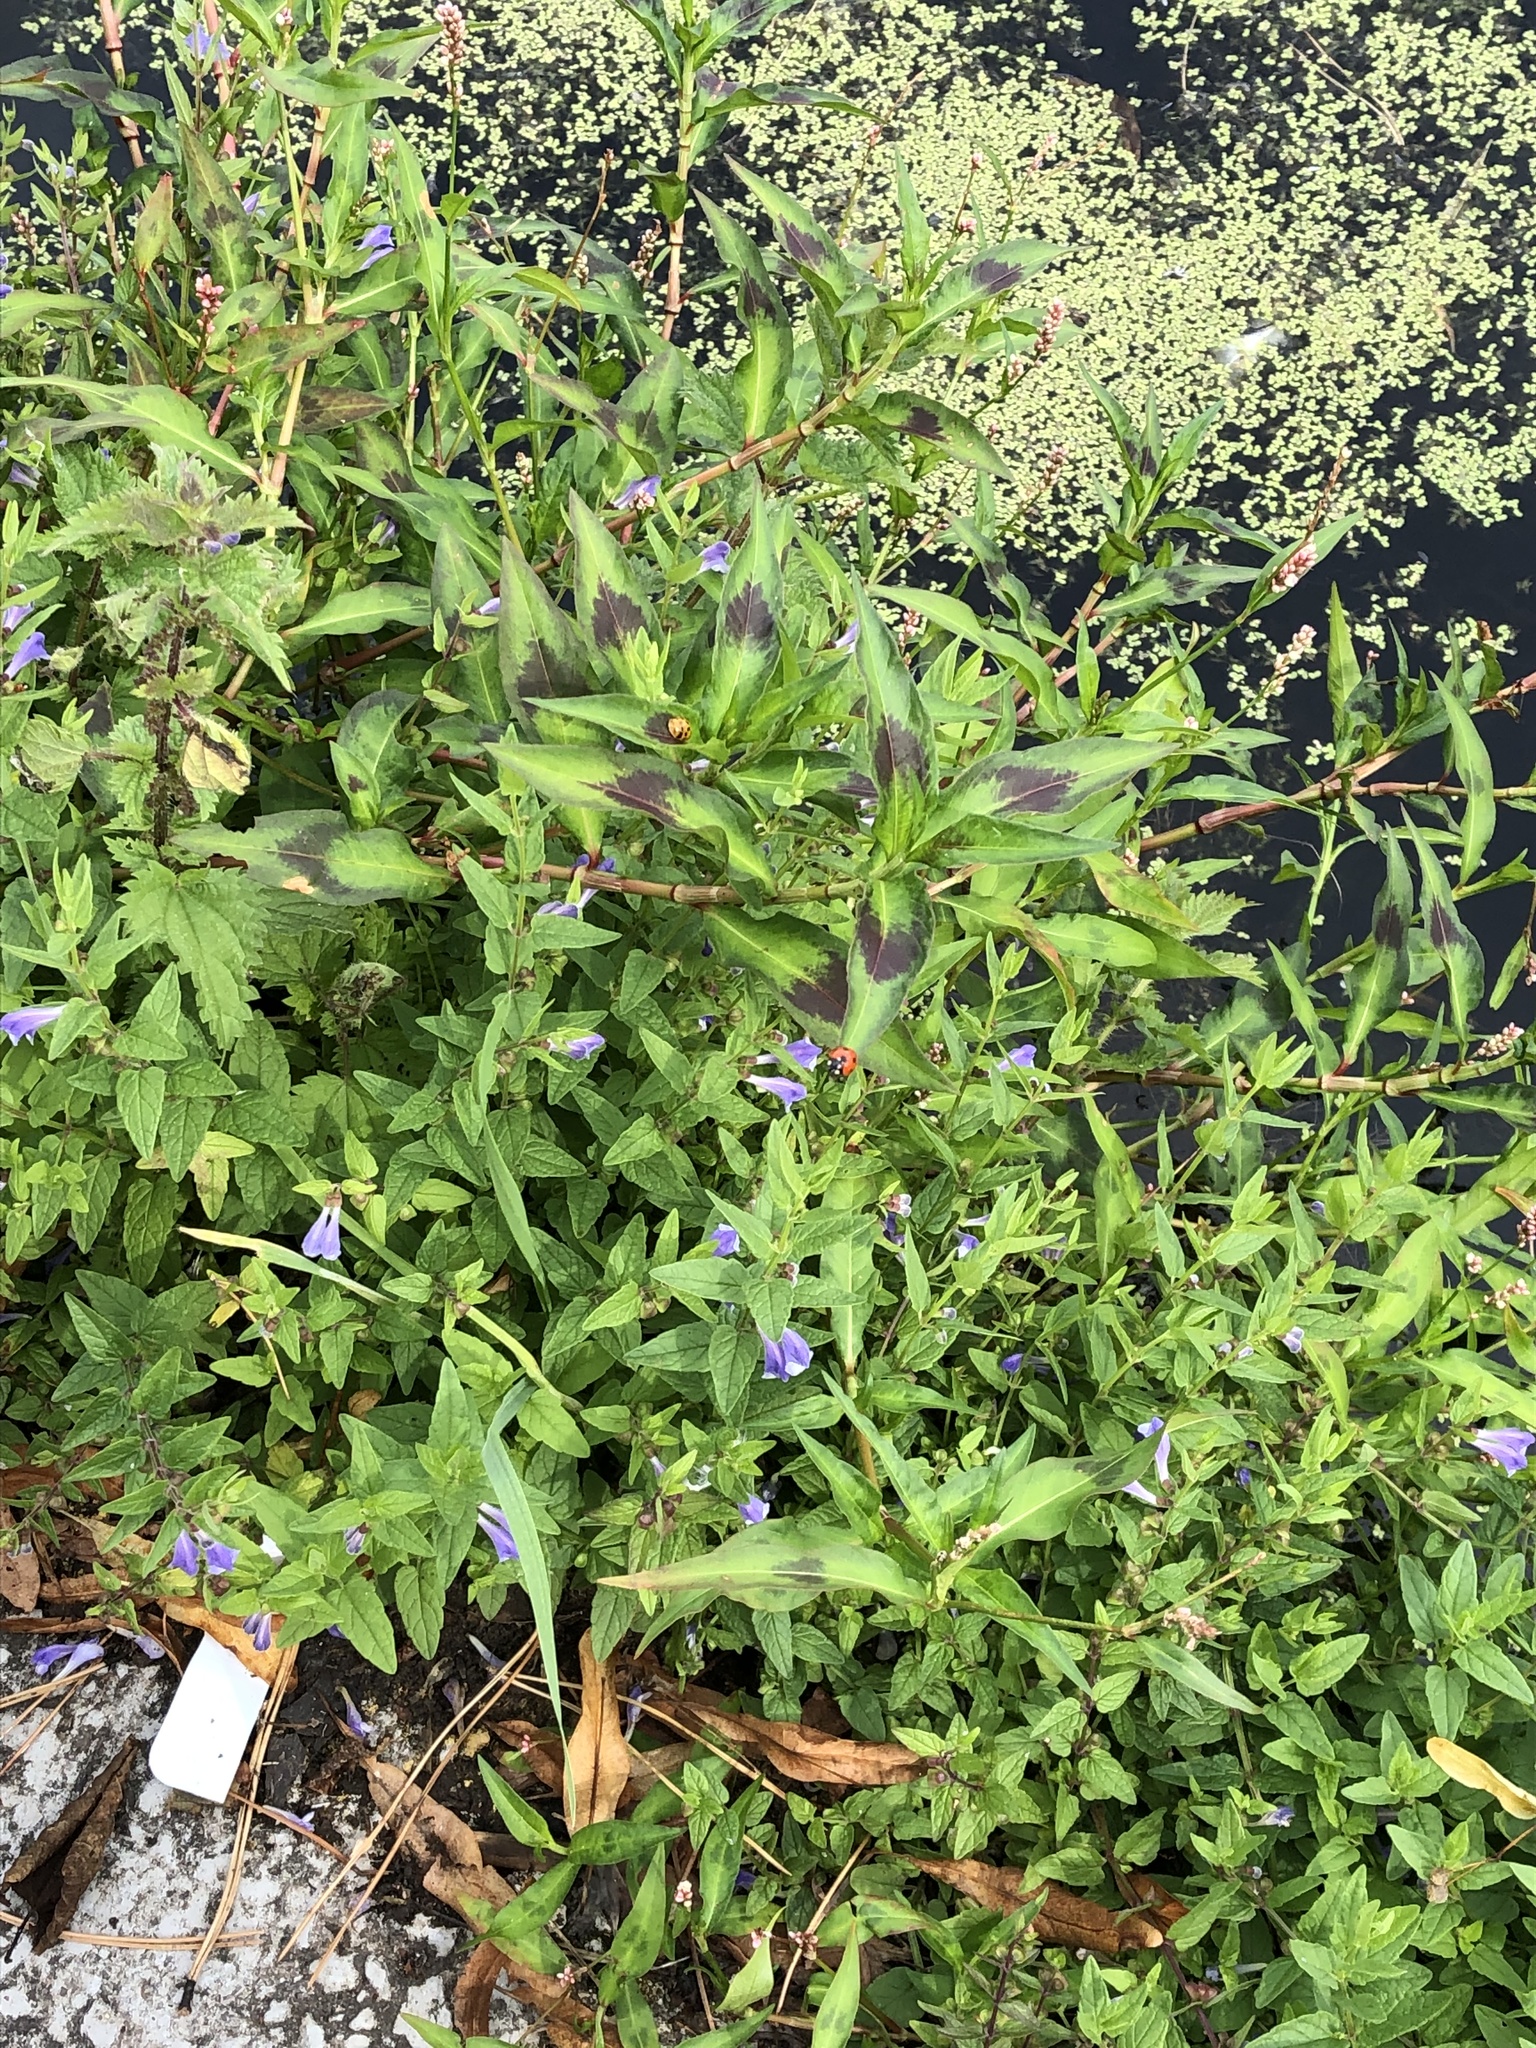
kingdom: Plantae
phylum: Tracheophyta
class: Magnoliopsida
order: Lamiales
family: Lamiaceae
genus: Scutellaria
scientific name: Scutellaria galericulata
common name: Skullcap
